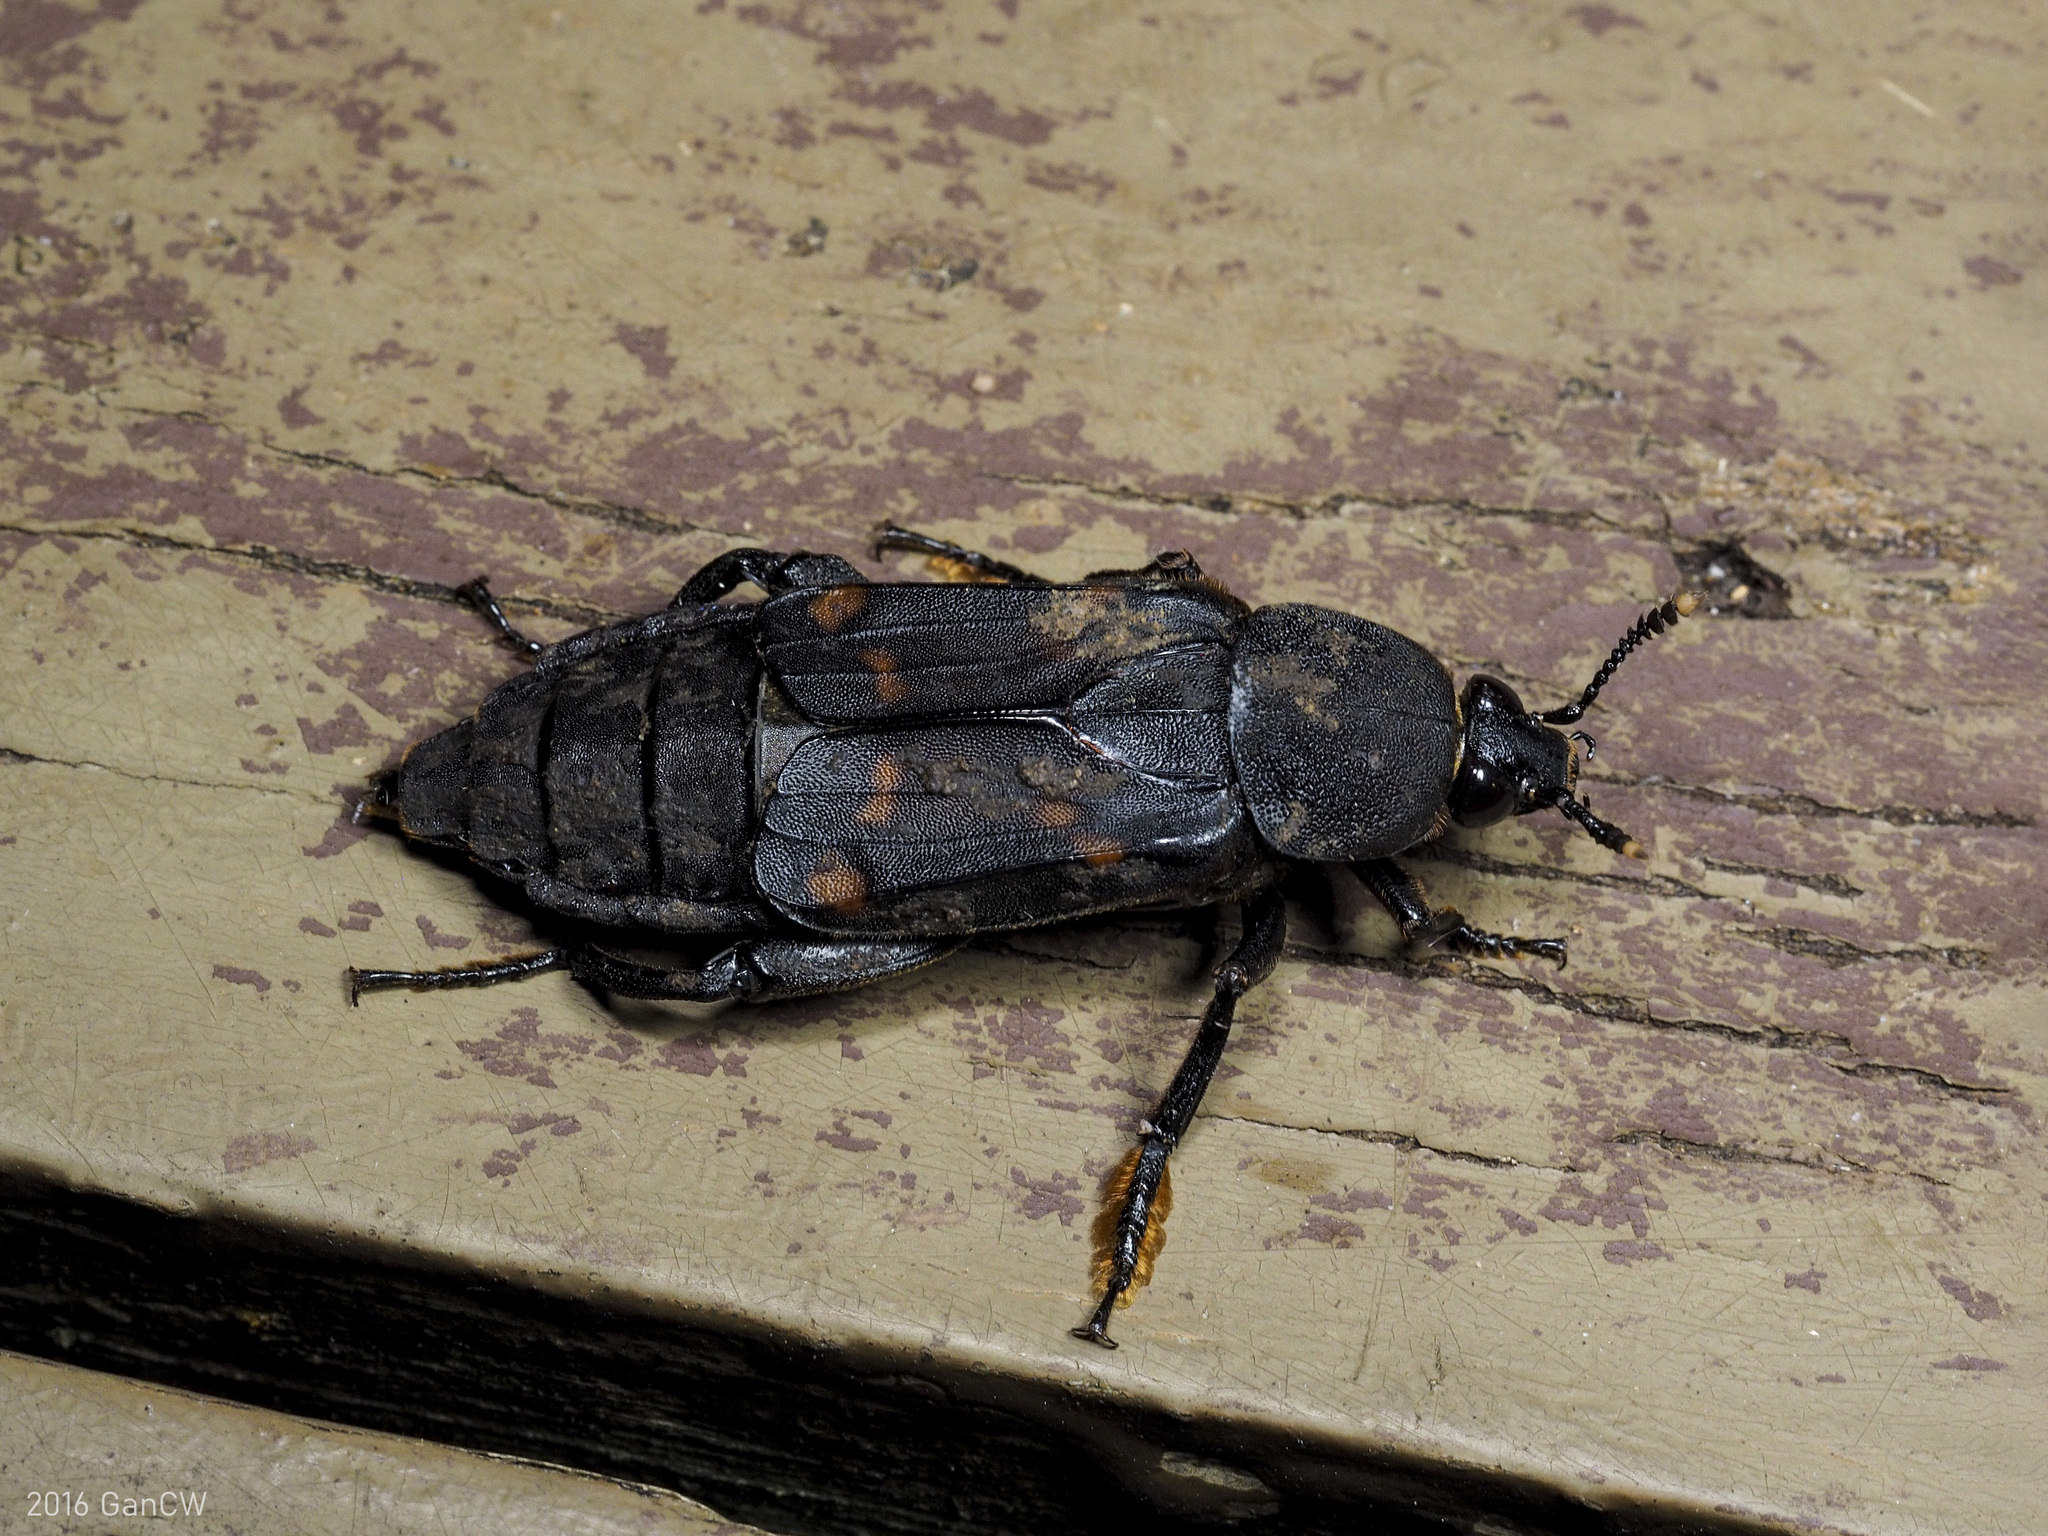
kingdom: Animalia
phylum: Arthropoda
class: Insecta
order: Coleoptera
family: Staphylinidae
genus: Diamesus
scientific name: Diamesus osculans
